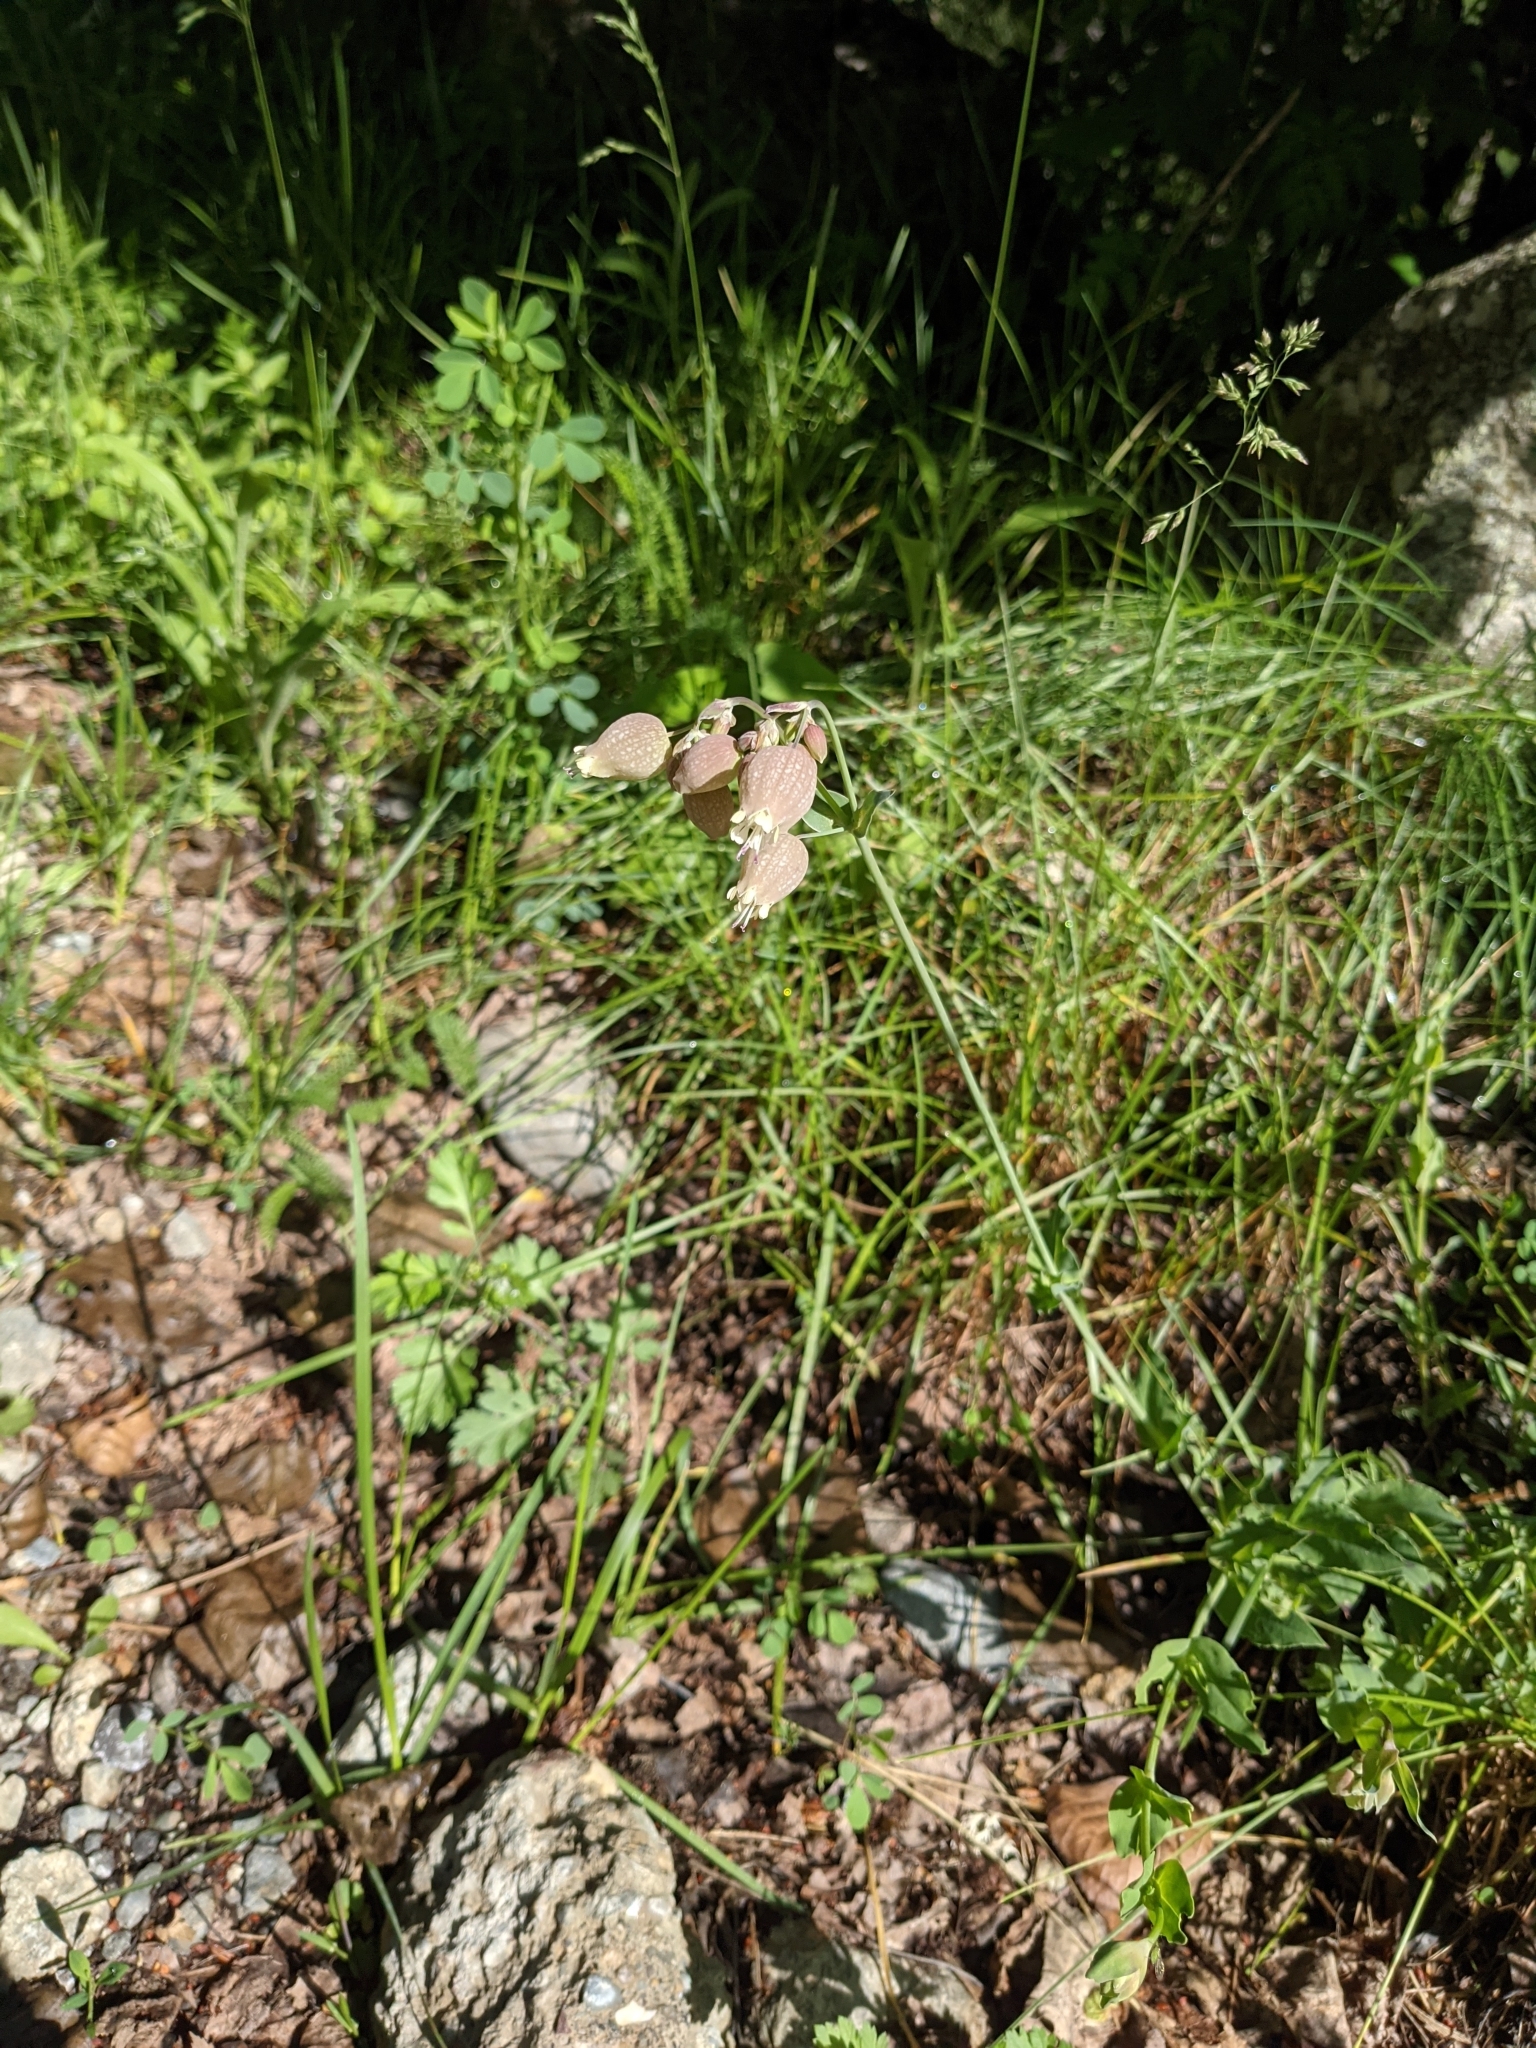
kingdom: Plantae
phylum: Tracheophyta
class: Magnoliopsida
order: Caryophyllales
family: Caryophyllaceae
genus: Silene
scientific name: Silene vulgaris
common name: Bladder campion
